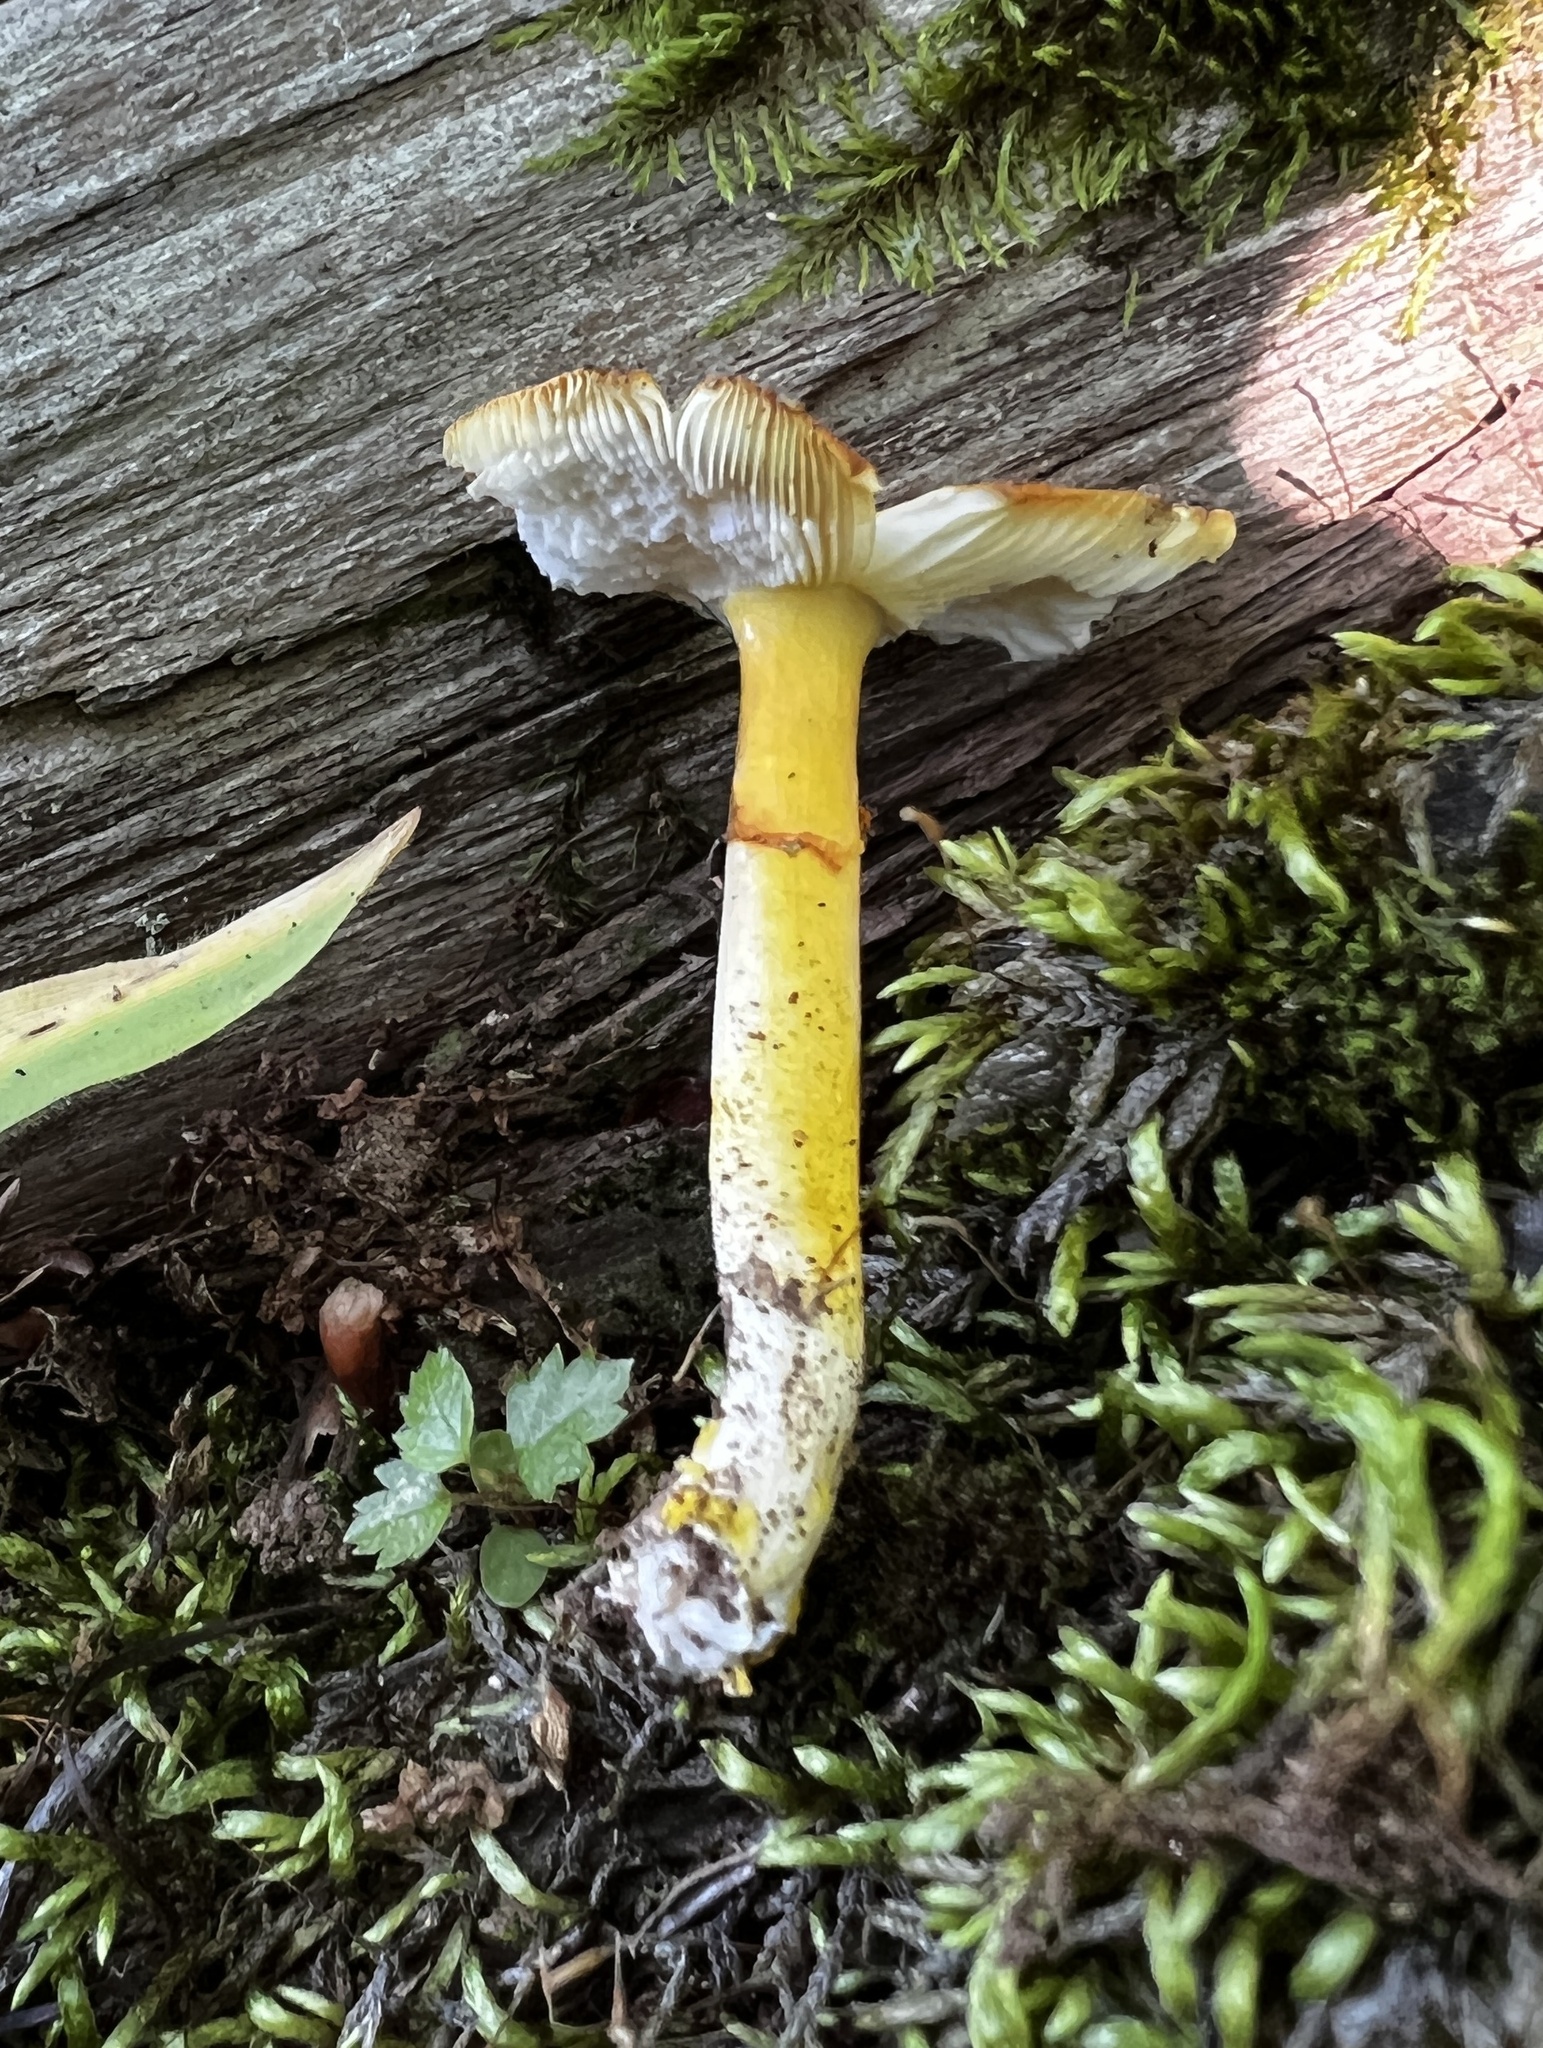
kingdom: Fungi
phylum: Basidiomycota
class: Agaricomycetes
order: Agaricales
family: Amanitaceae
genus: Amanita
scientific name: Amanita flavoconia
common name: Yellow patches
